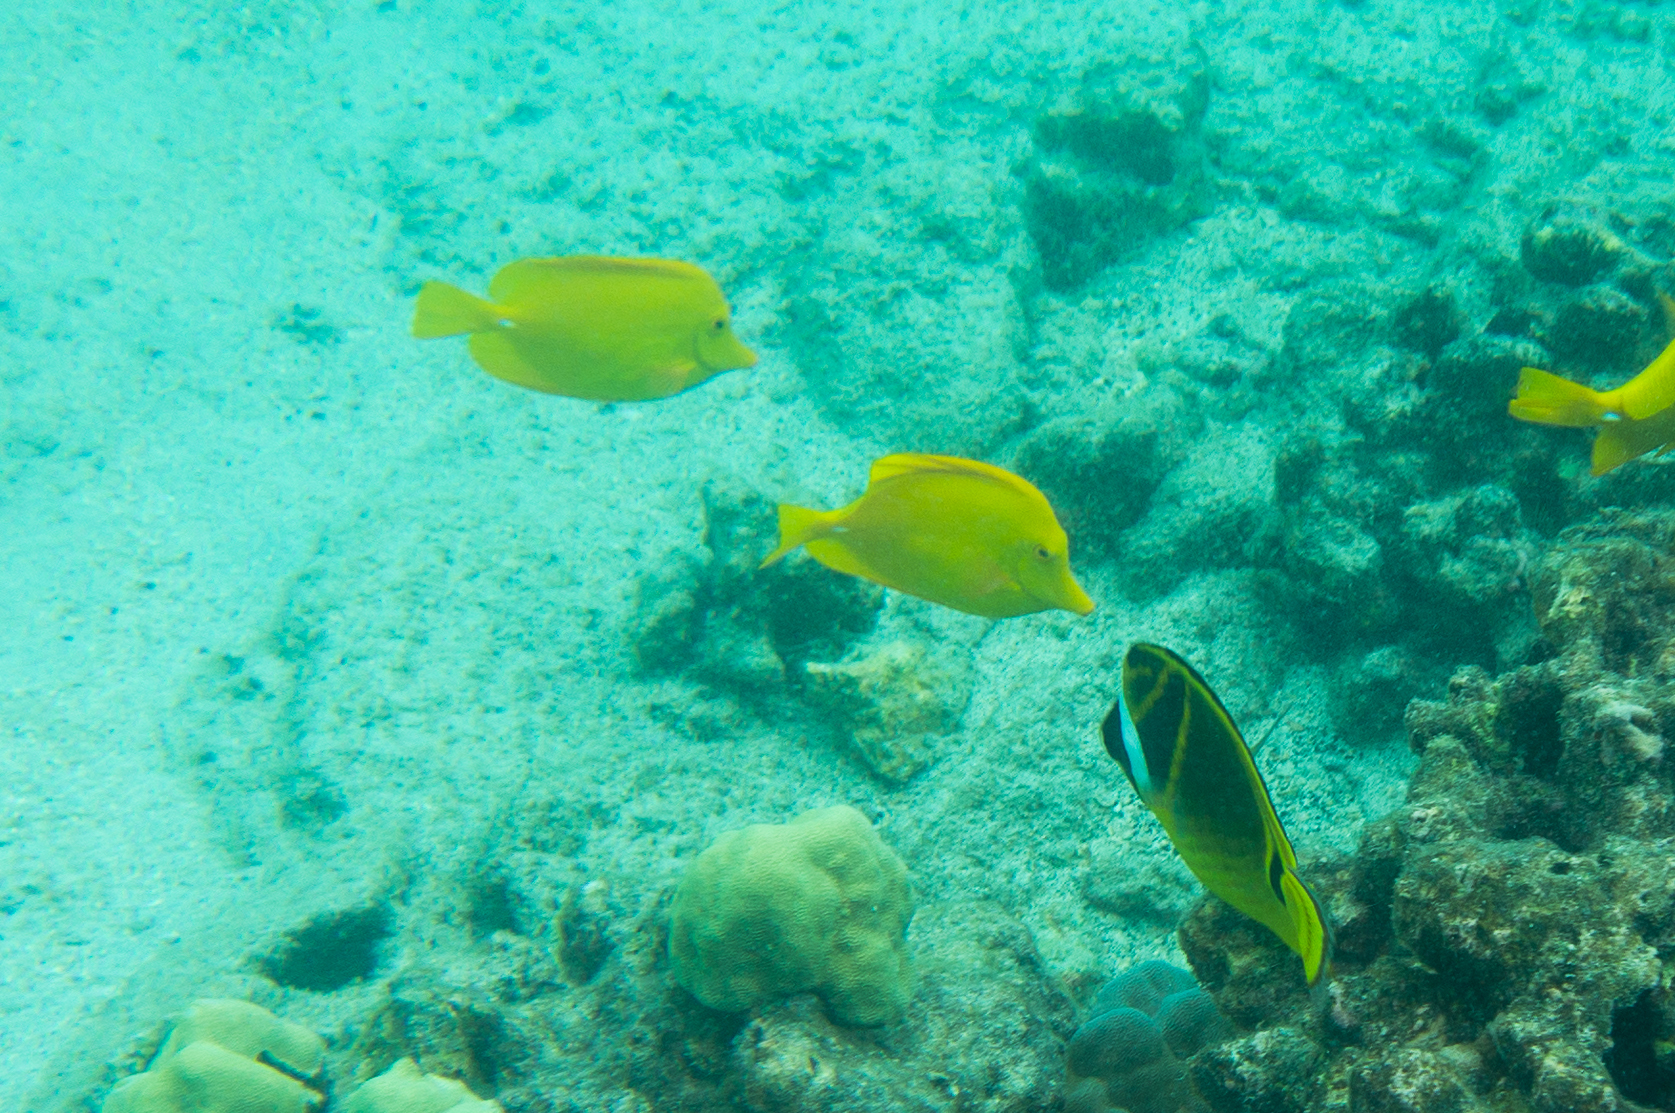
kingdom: Animalia
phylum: Chordata
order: Perciformes
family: Chaetodontidae
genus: Chaetodon
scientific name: Chaetodon lunula
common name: Raccoon butterflyfish
